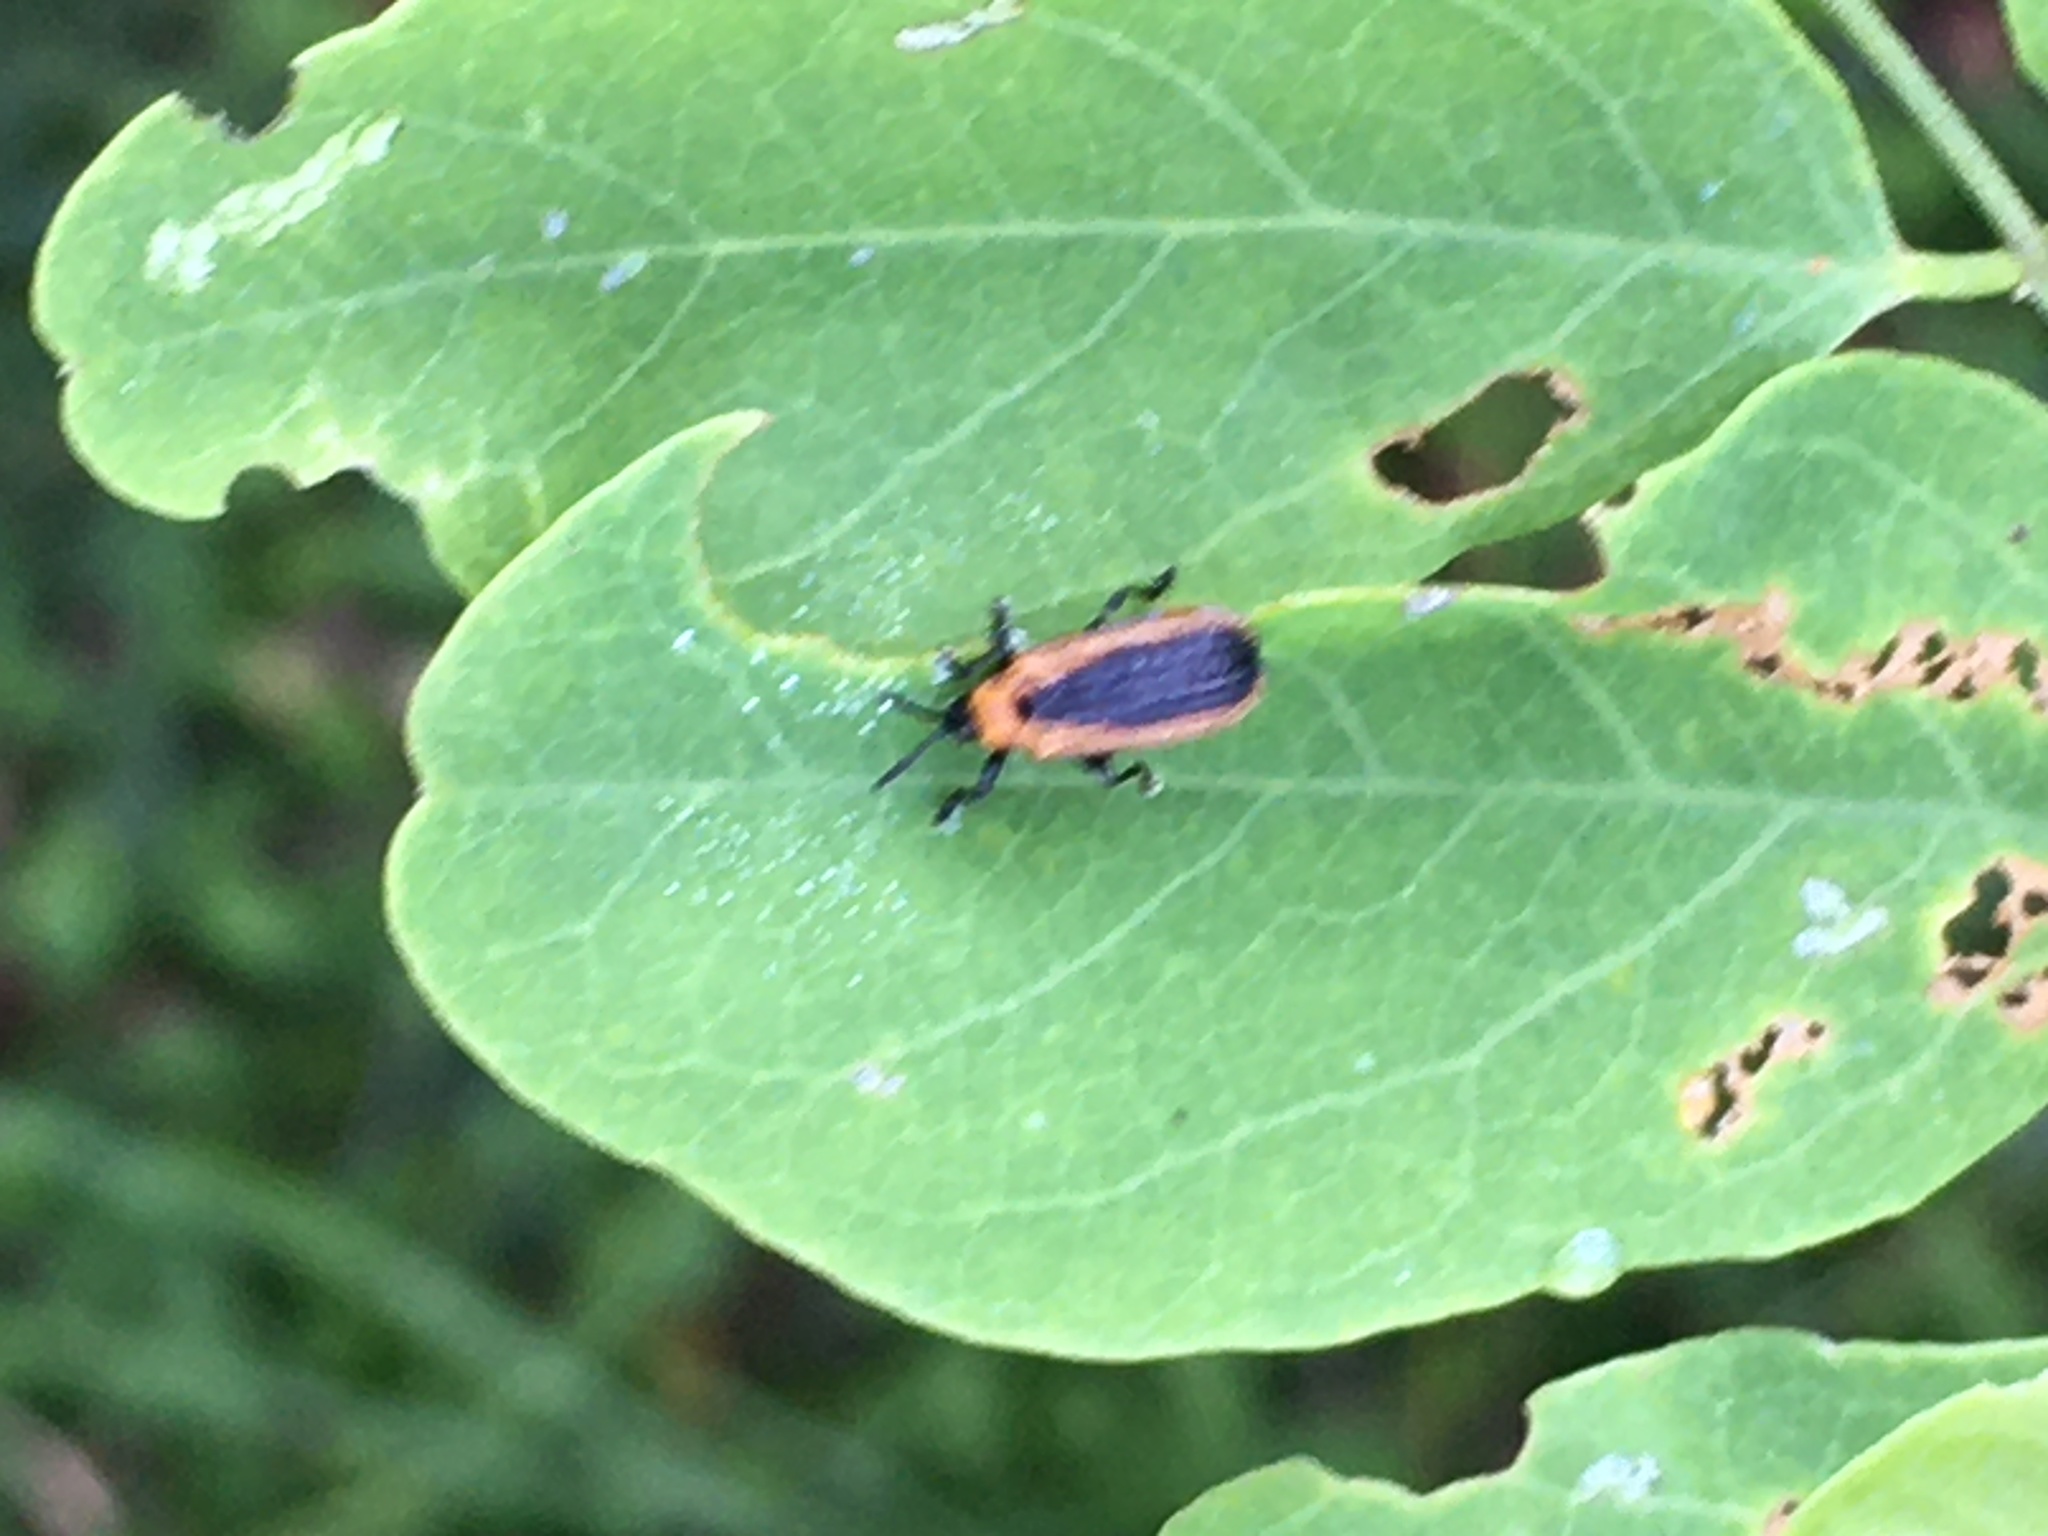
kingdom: Animalia
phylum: Arthropoda
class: Insecta
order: Coleoptera
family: Chrysomelidae
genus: Odontota
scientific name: Odontota dorsalis
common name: Locust leaf-miner beetle
